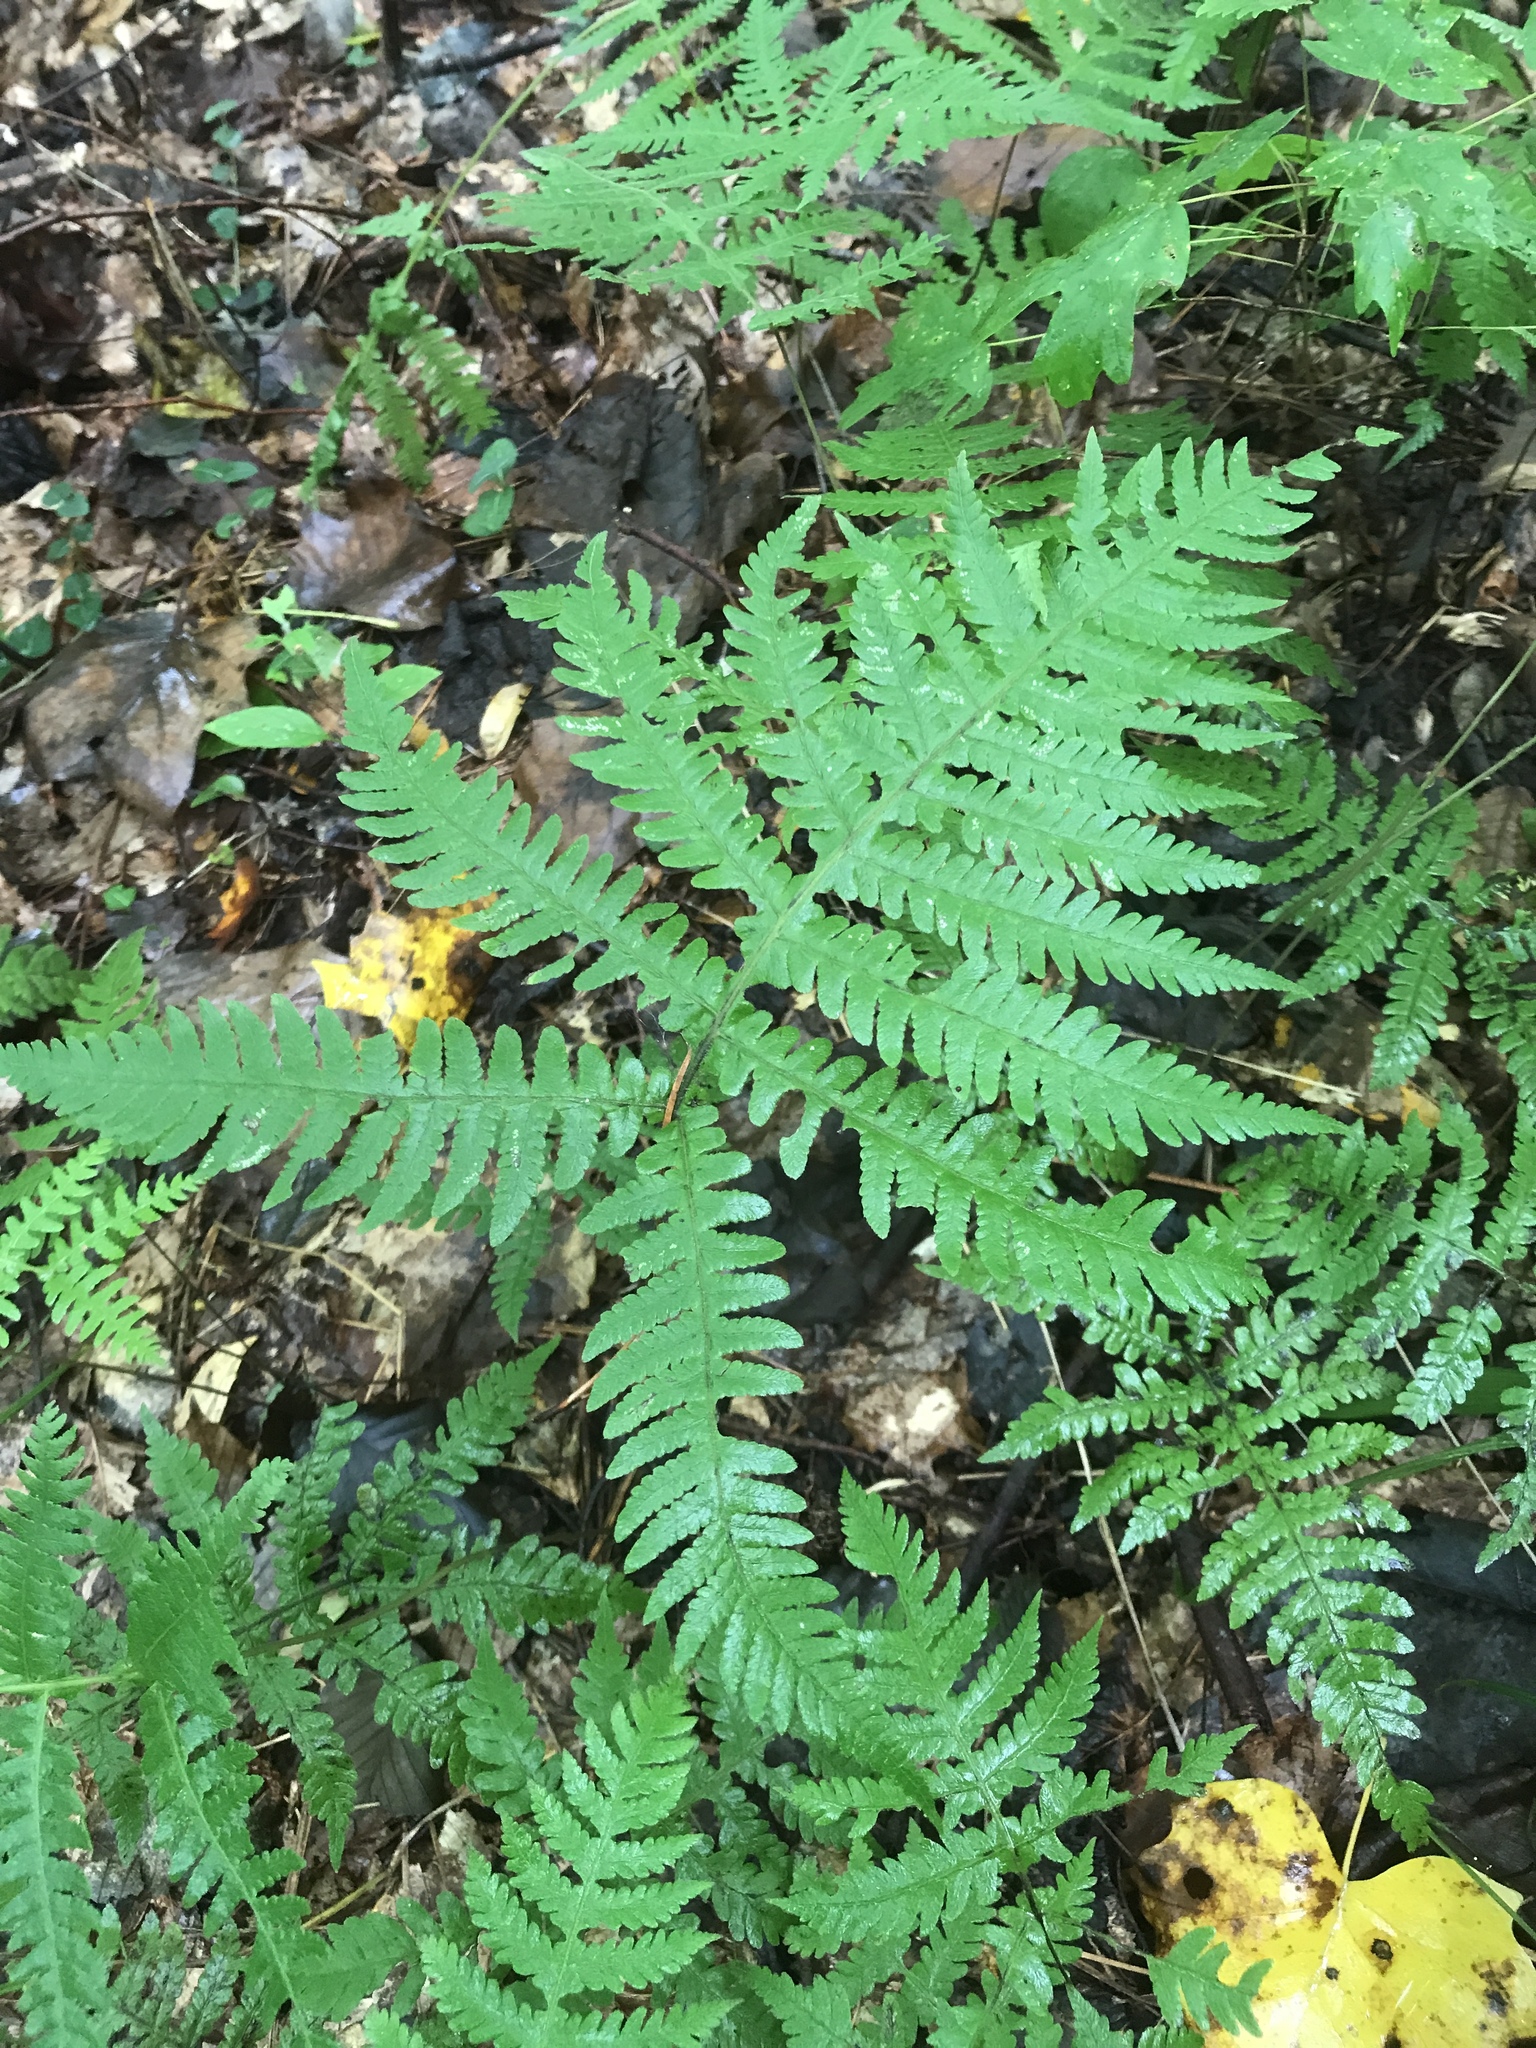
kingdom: Plantae
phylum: Tracheophyta
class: Polypodiopsida
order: Polypodiales
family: Thelypteridaceae
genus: Phegopteris
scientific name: Phegopteris hexagonoptera
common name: Broad beech fern
